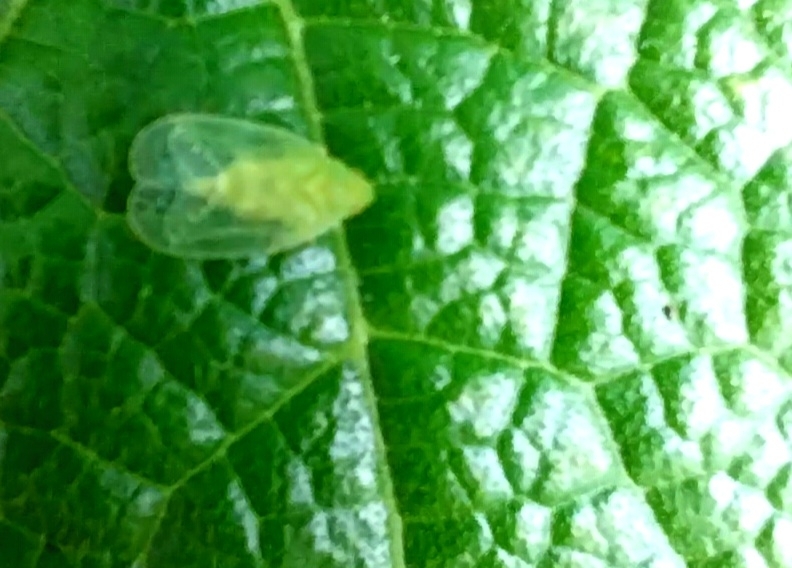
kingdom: Animalia
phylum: Arthropoda
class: Insecta
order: Hemiptera
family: Tropiduchidae
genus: Kallitaxila
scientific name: Kallitaxila granulata
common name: Planthopper
